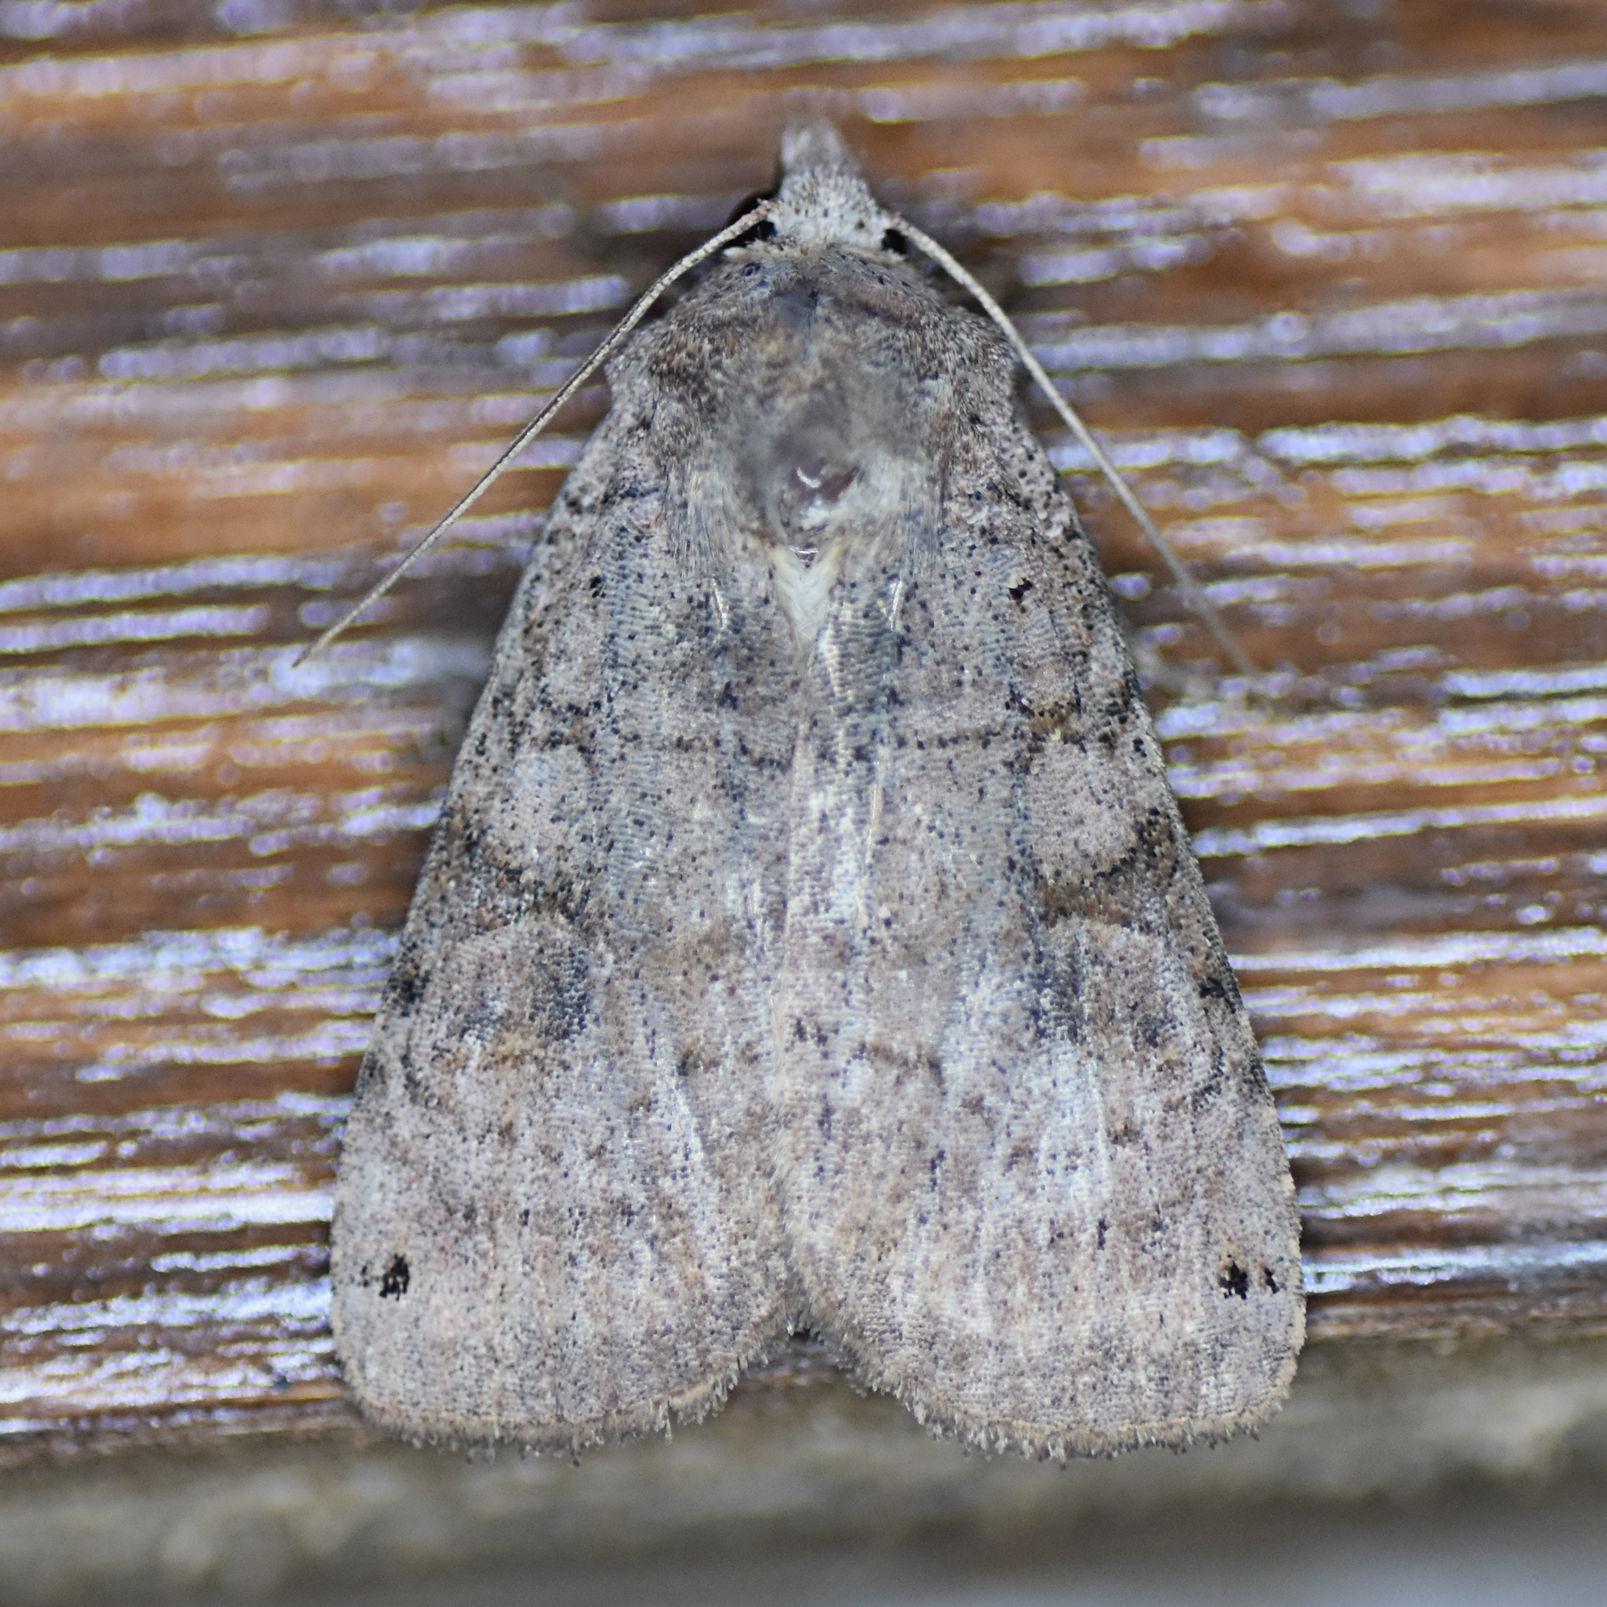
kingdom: Animalia
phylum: Arthropoda
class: Insecta
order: Lepidoptera
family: Noctuidae
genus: Xestia
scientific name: Xestia smithii
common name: Smith's dart
